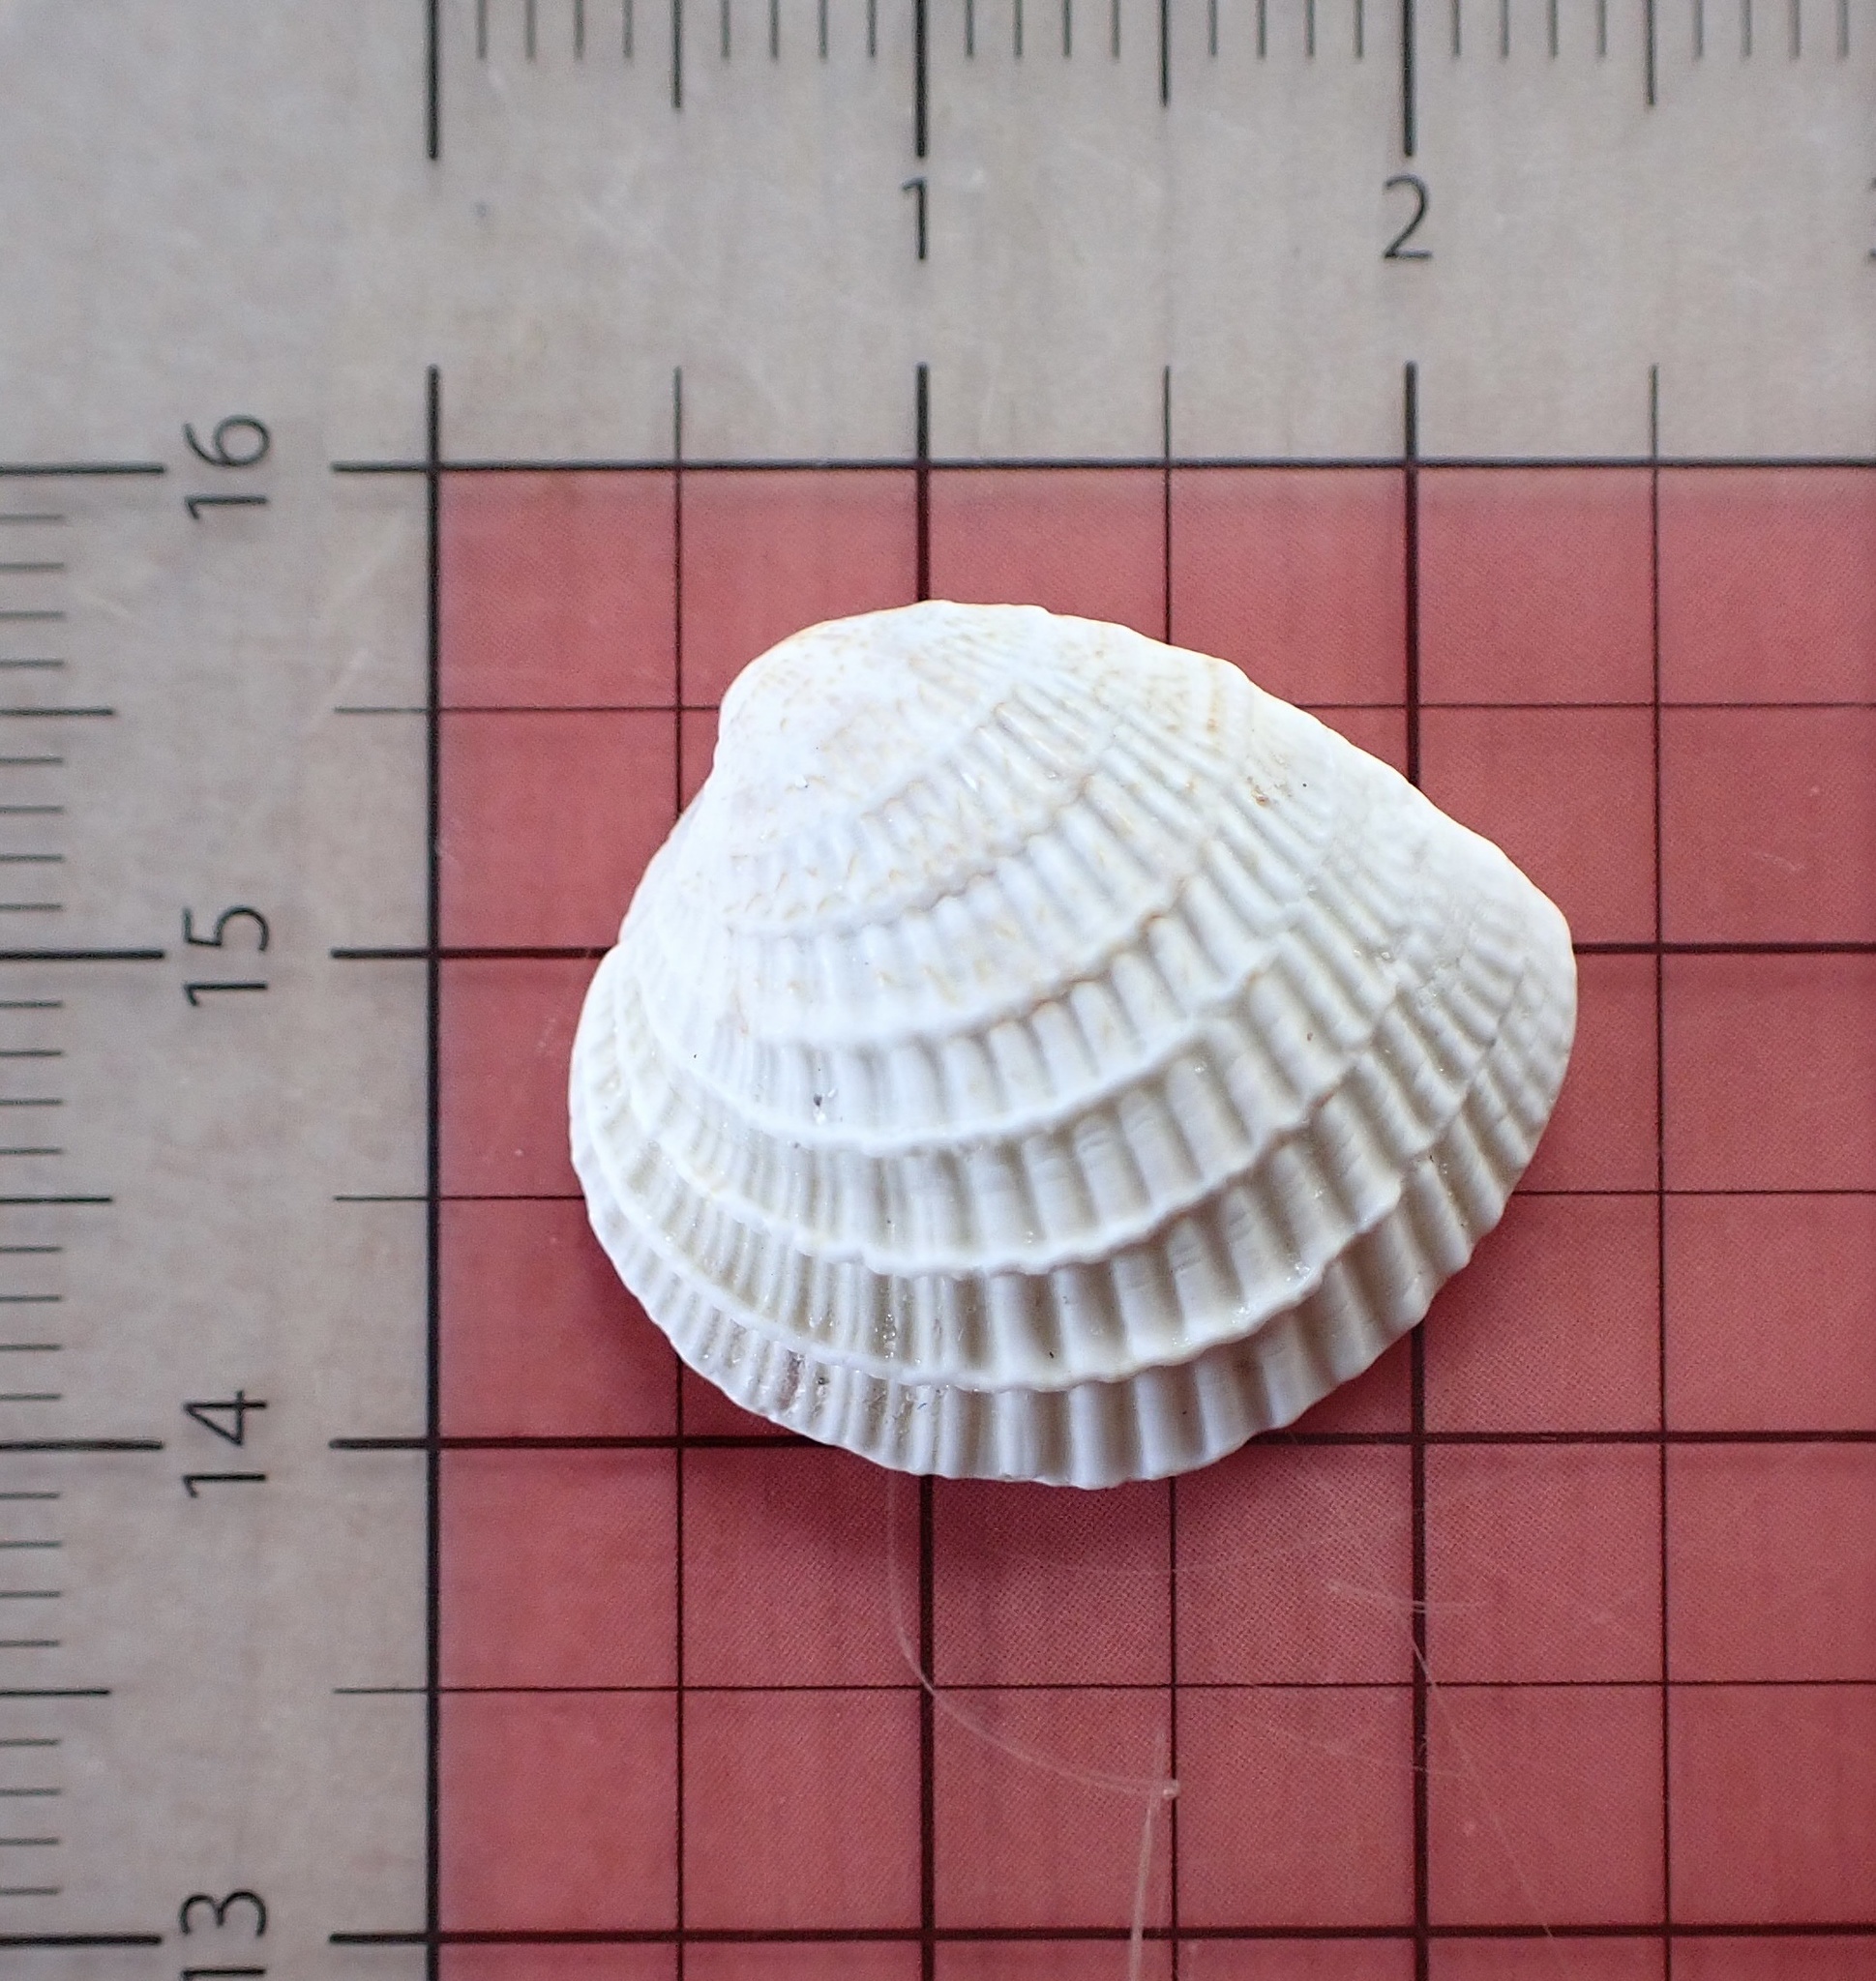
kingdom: Animalia
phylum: Mollusca
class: Bivalvia
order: Venerida
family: Veneridae
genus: Chione
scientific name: Chione elevata
